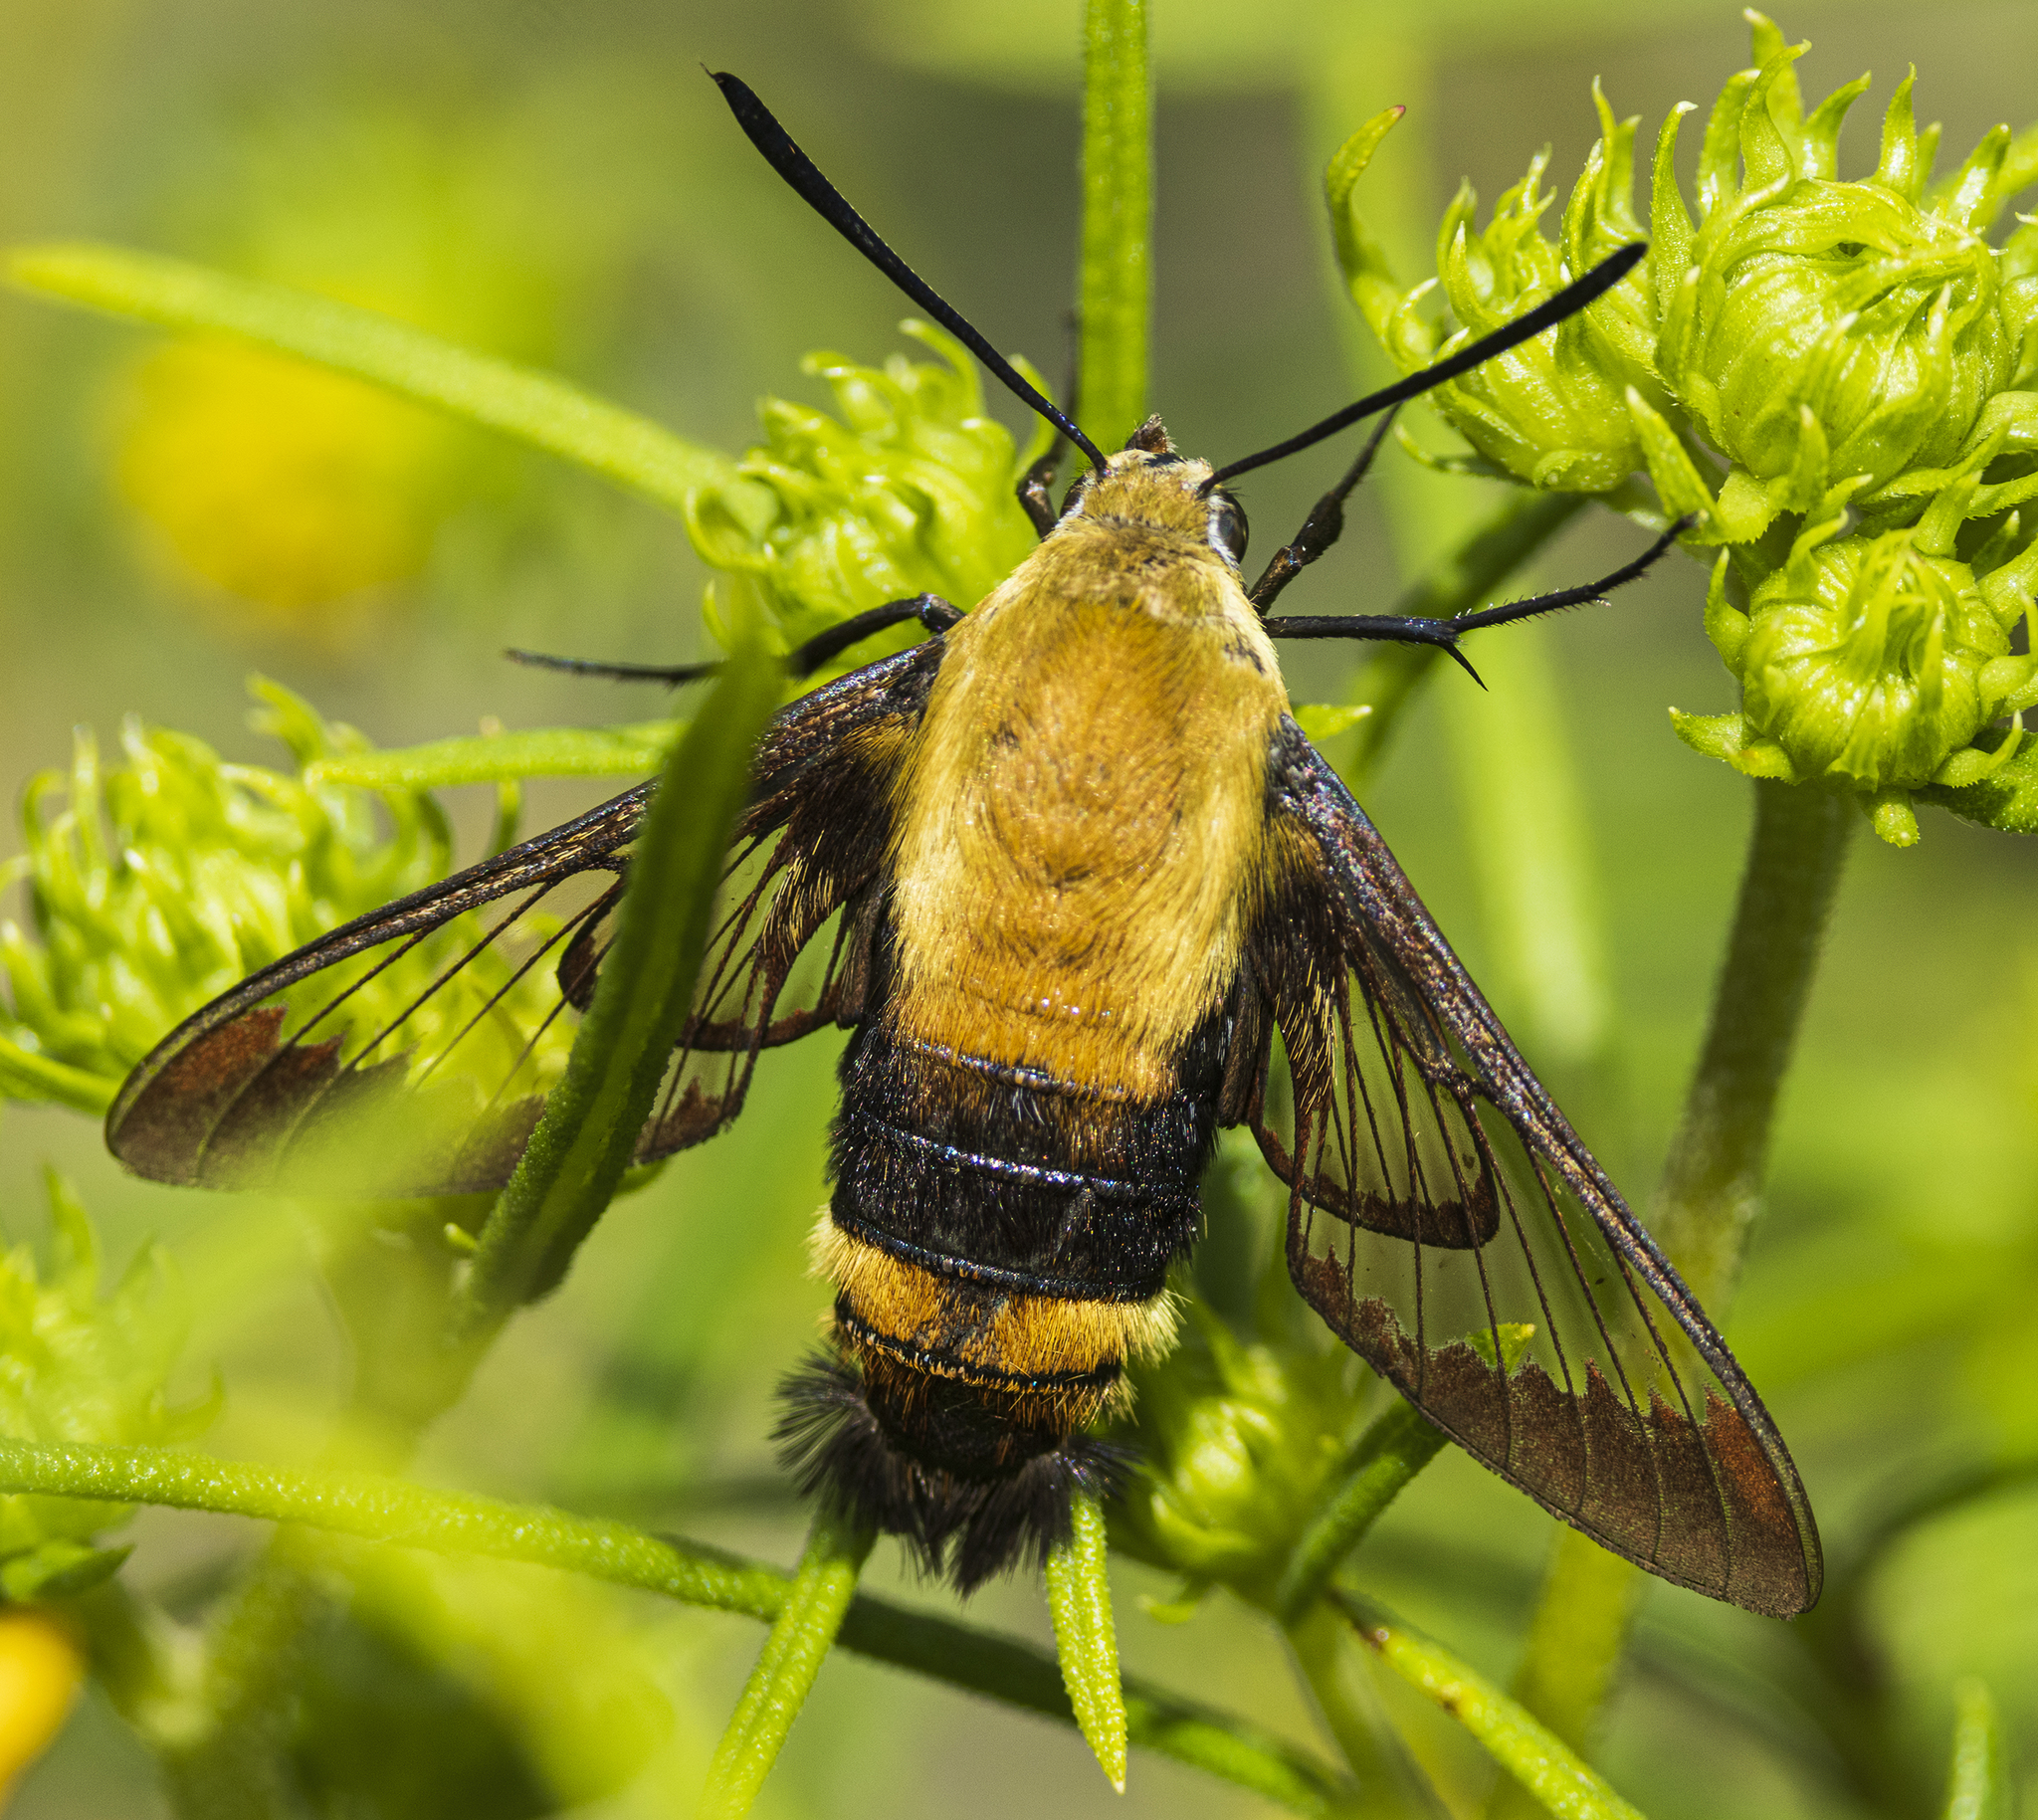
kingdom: Animalia
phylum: Arthropoda
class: Insecta
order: Lepidoptera
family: Sphingidae
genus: Hemaris
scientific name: Hemaris diffinis
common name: Bumblebee moth
